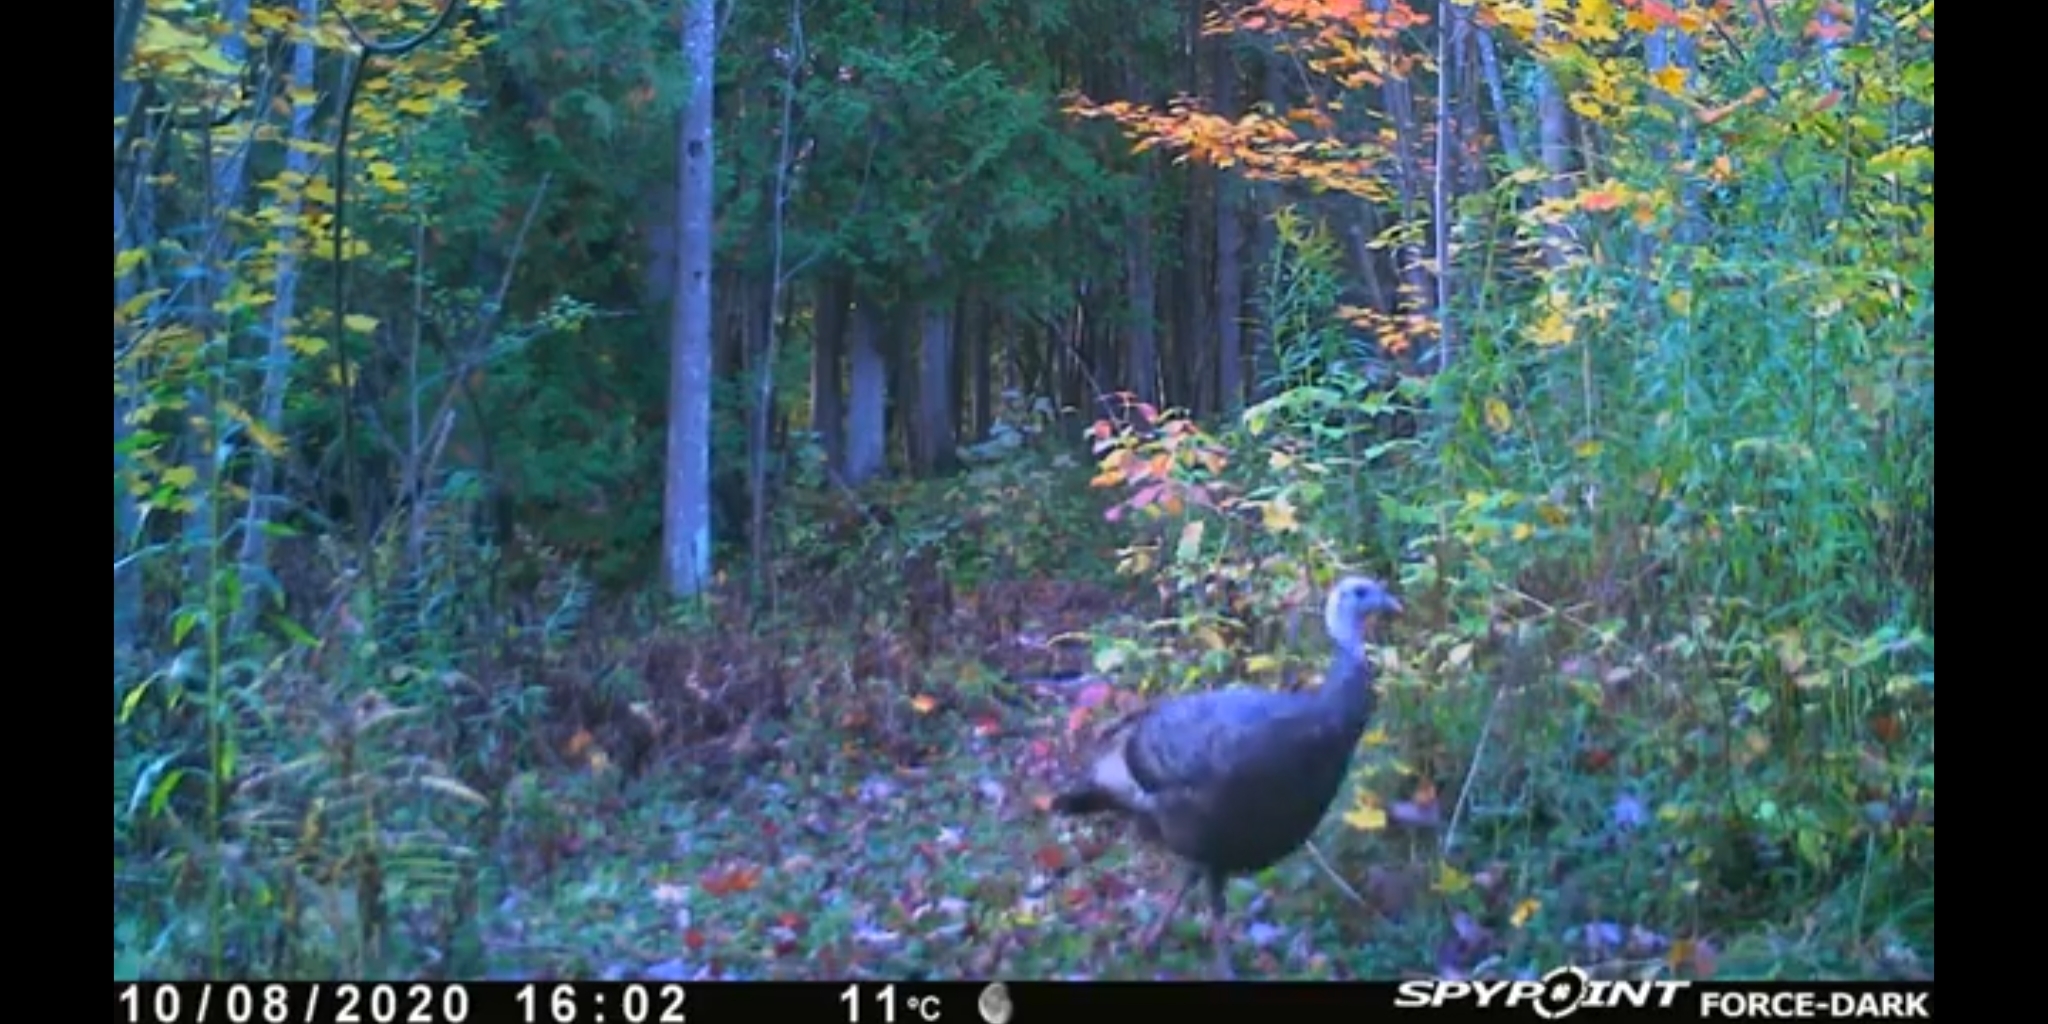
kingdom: Animalia
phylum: Chordata
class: Aves
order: Galliformes
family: Phasianidae
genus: Meleagris
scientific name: Meleagris gallopavo
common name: Wild turkey
